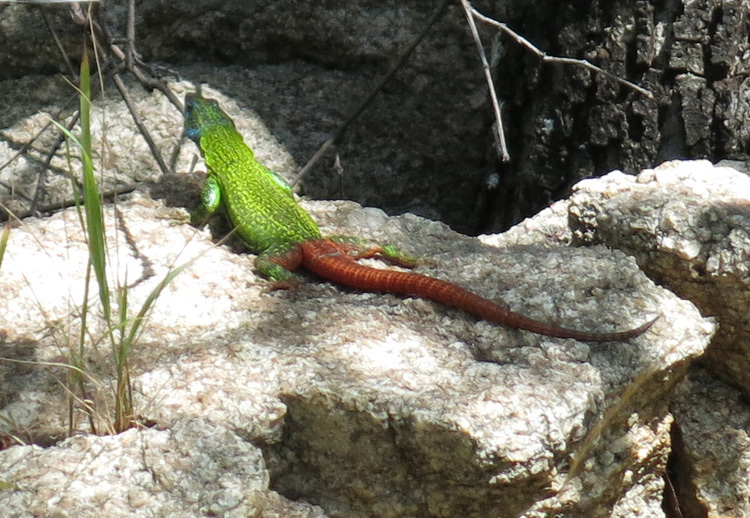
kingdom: Animalia
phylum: Chordata
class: Squamata
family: Cordylidae
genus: Platysaurus
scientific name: Platysaurus intermedius
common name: Common flat lizard
